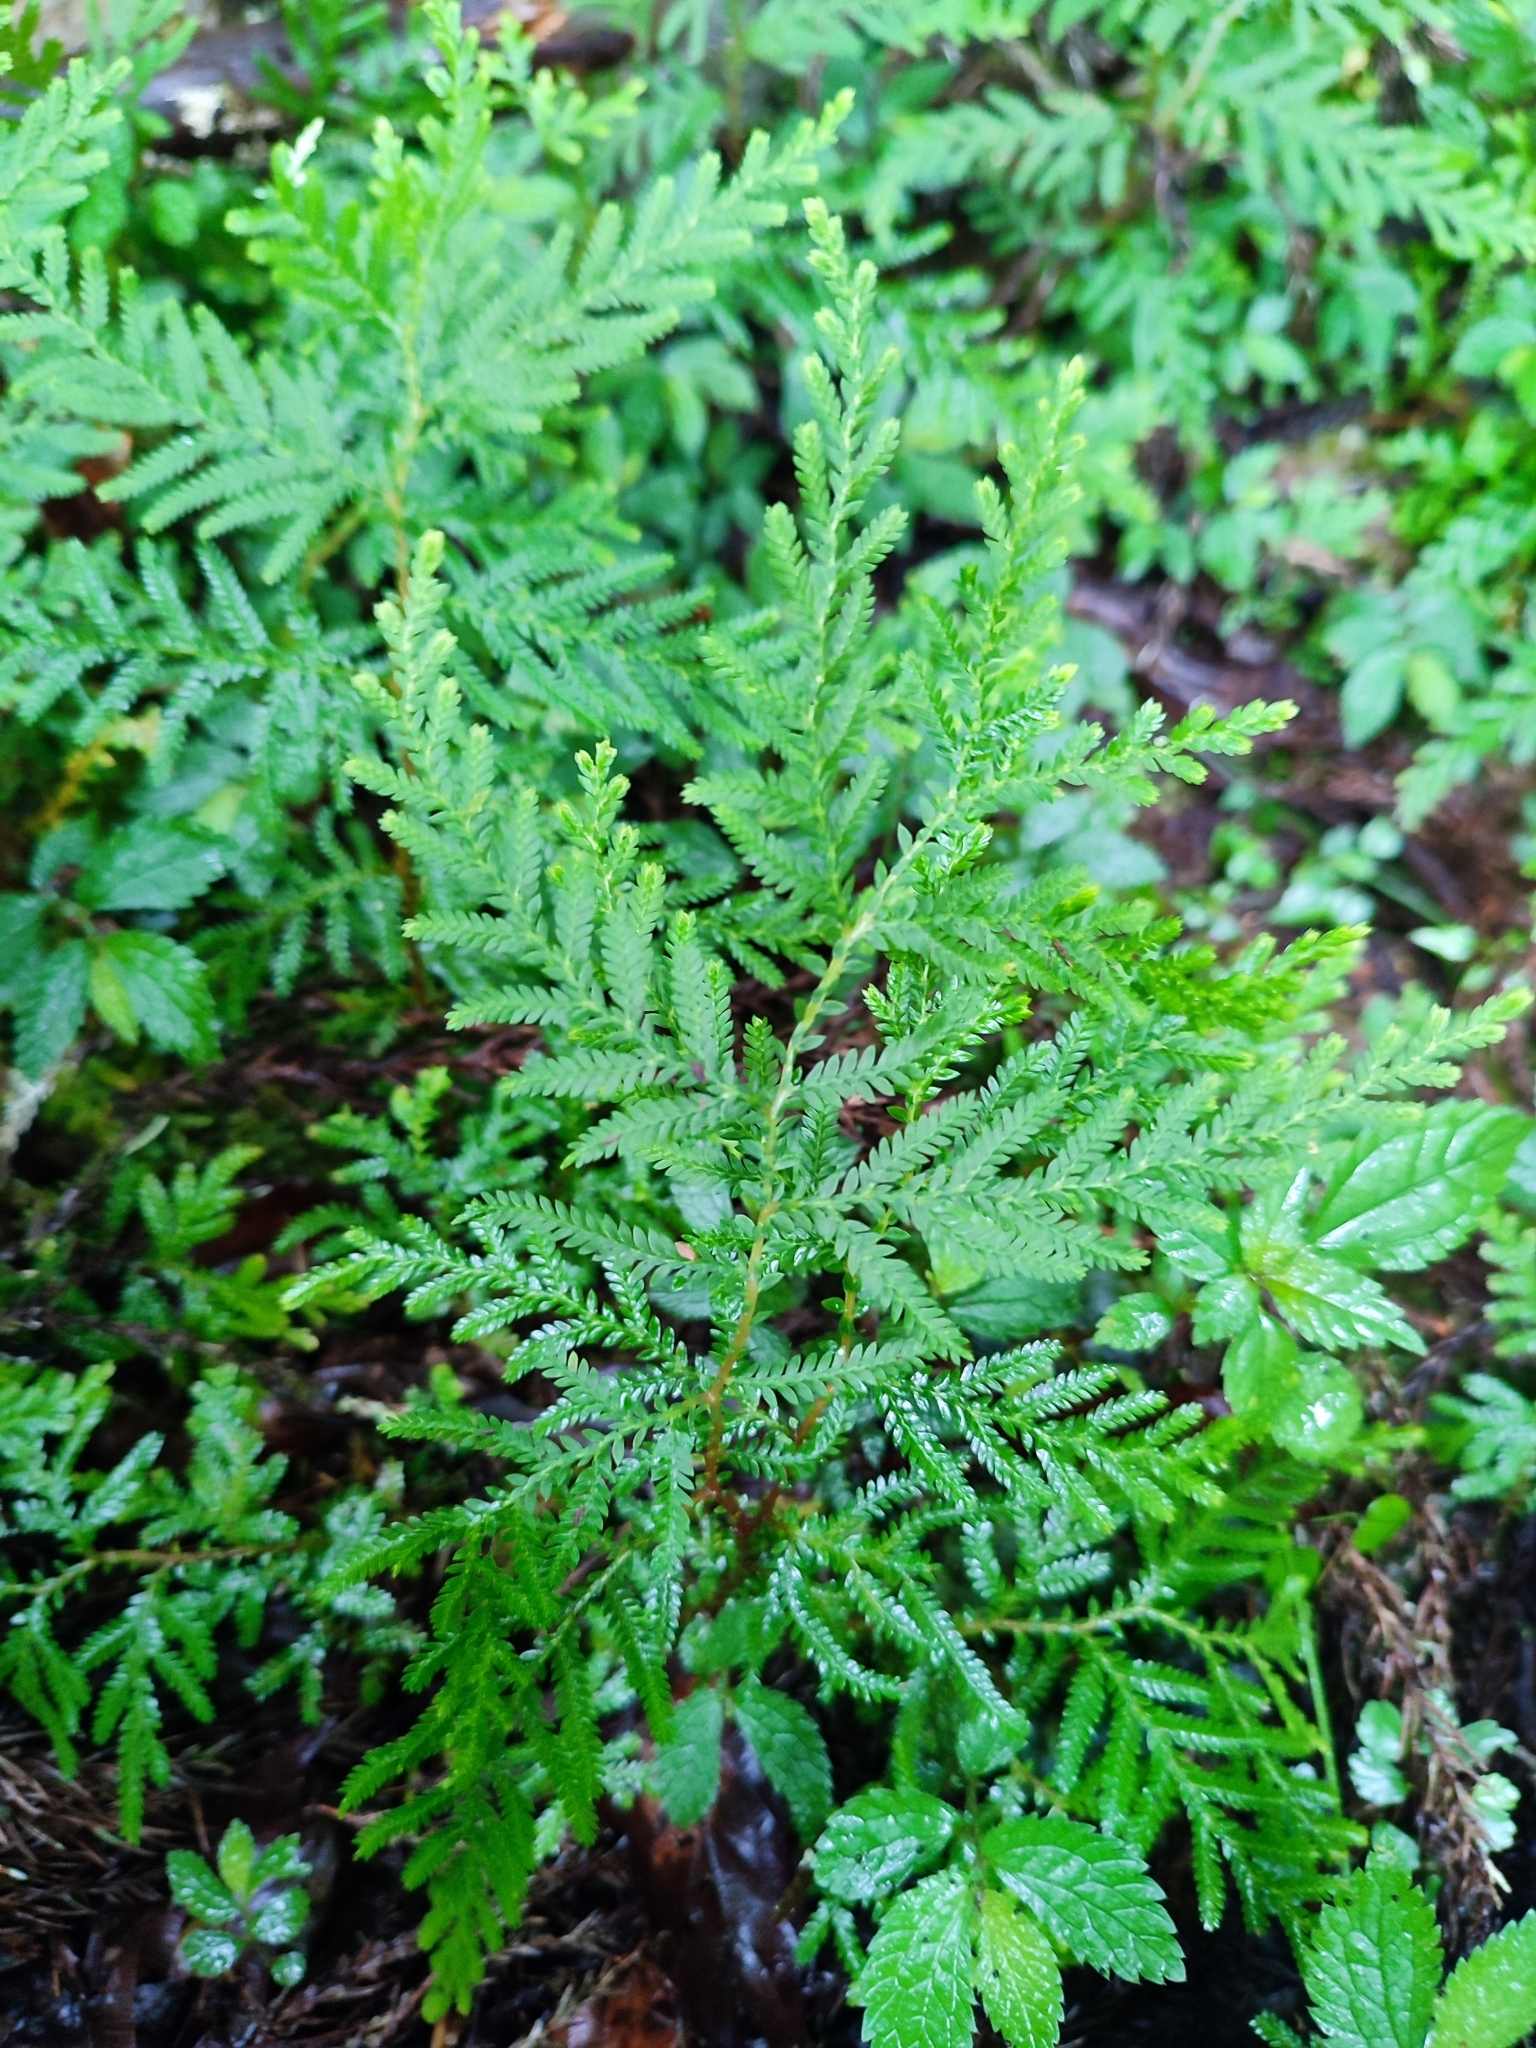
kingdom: Plantae
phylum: Tracheophyta
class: Lycopodiopsida
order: Selaginellales
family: Selaginellaceae
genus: Selaginella
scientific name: Selaginella delicatula
